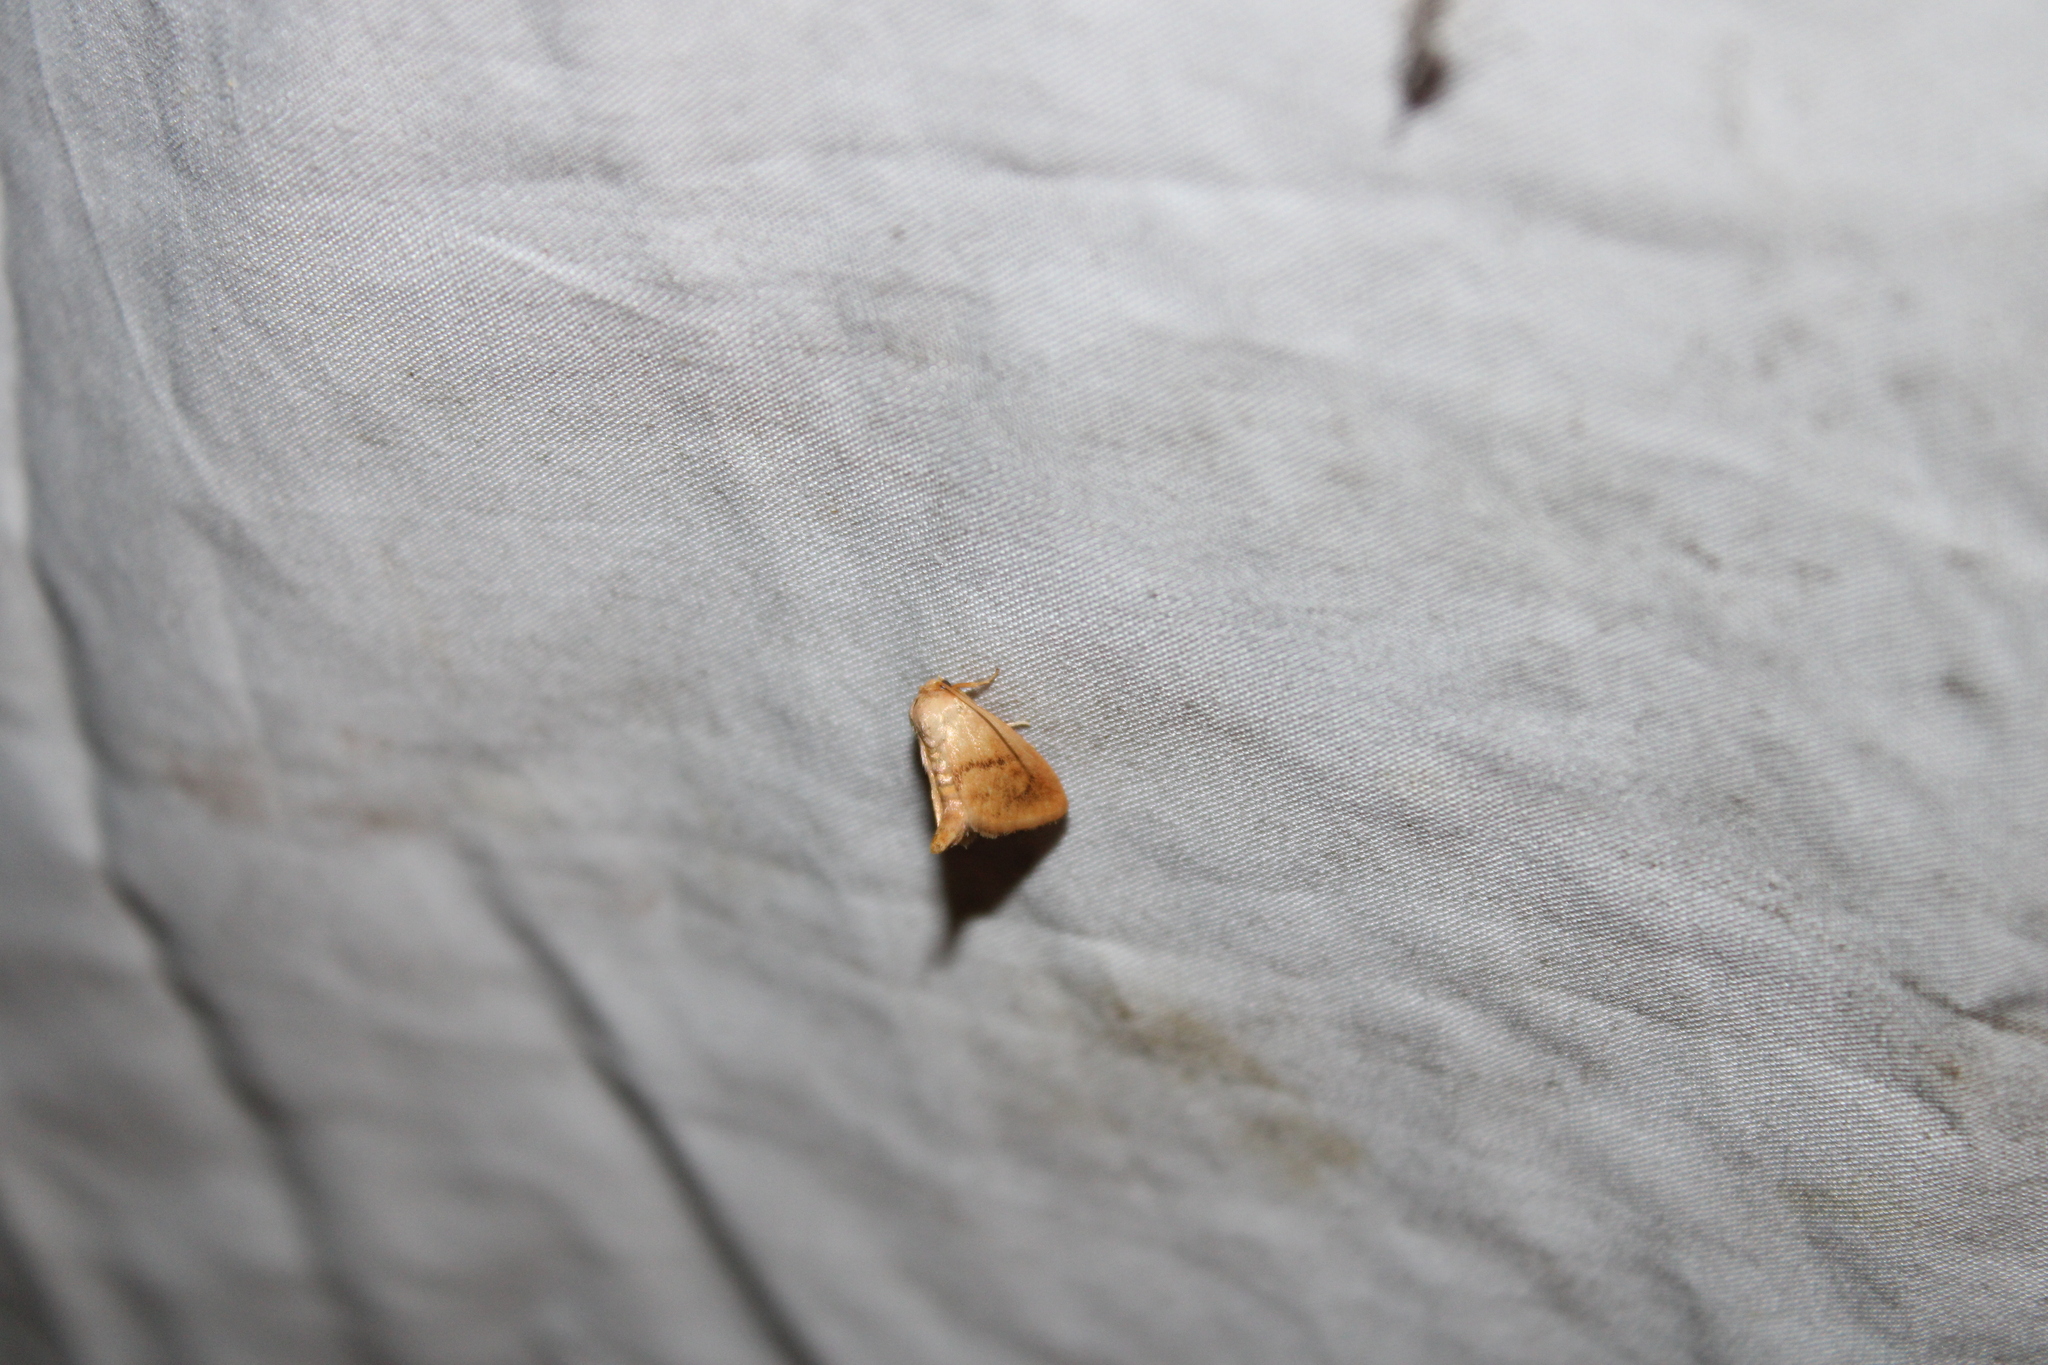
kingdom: Animalia
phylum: Arthropoda
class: Insecta
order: Lepidoptera
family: Limacodidae
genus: Tortricidia
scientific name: Tortricidia flexuosa
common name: Abbreviated button slug moth
